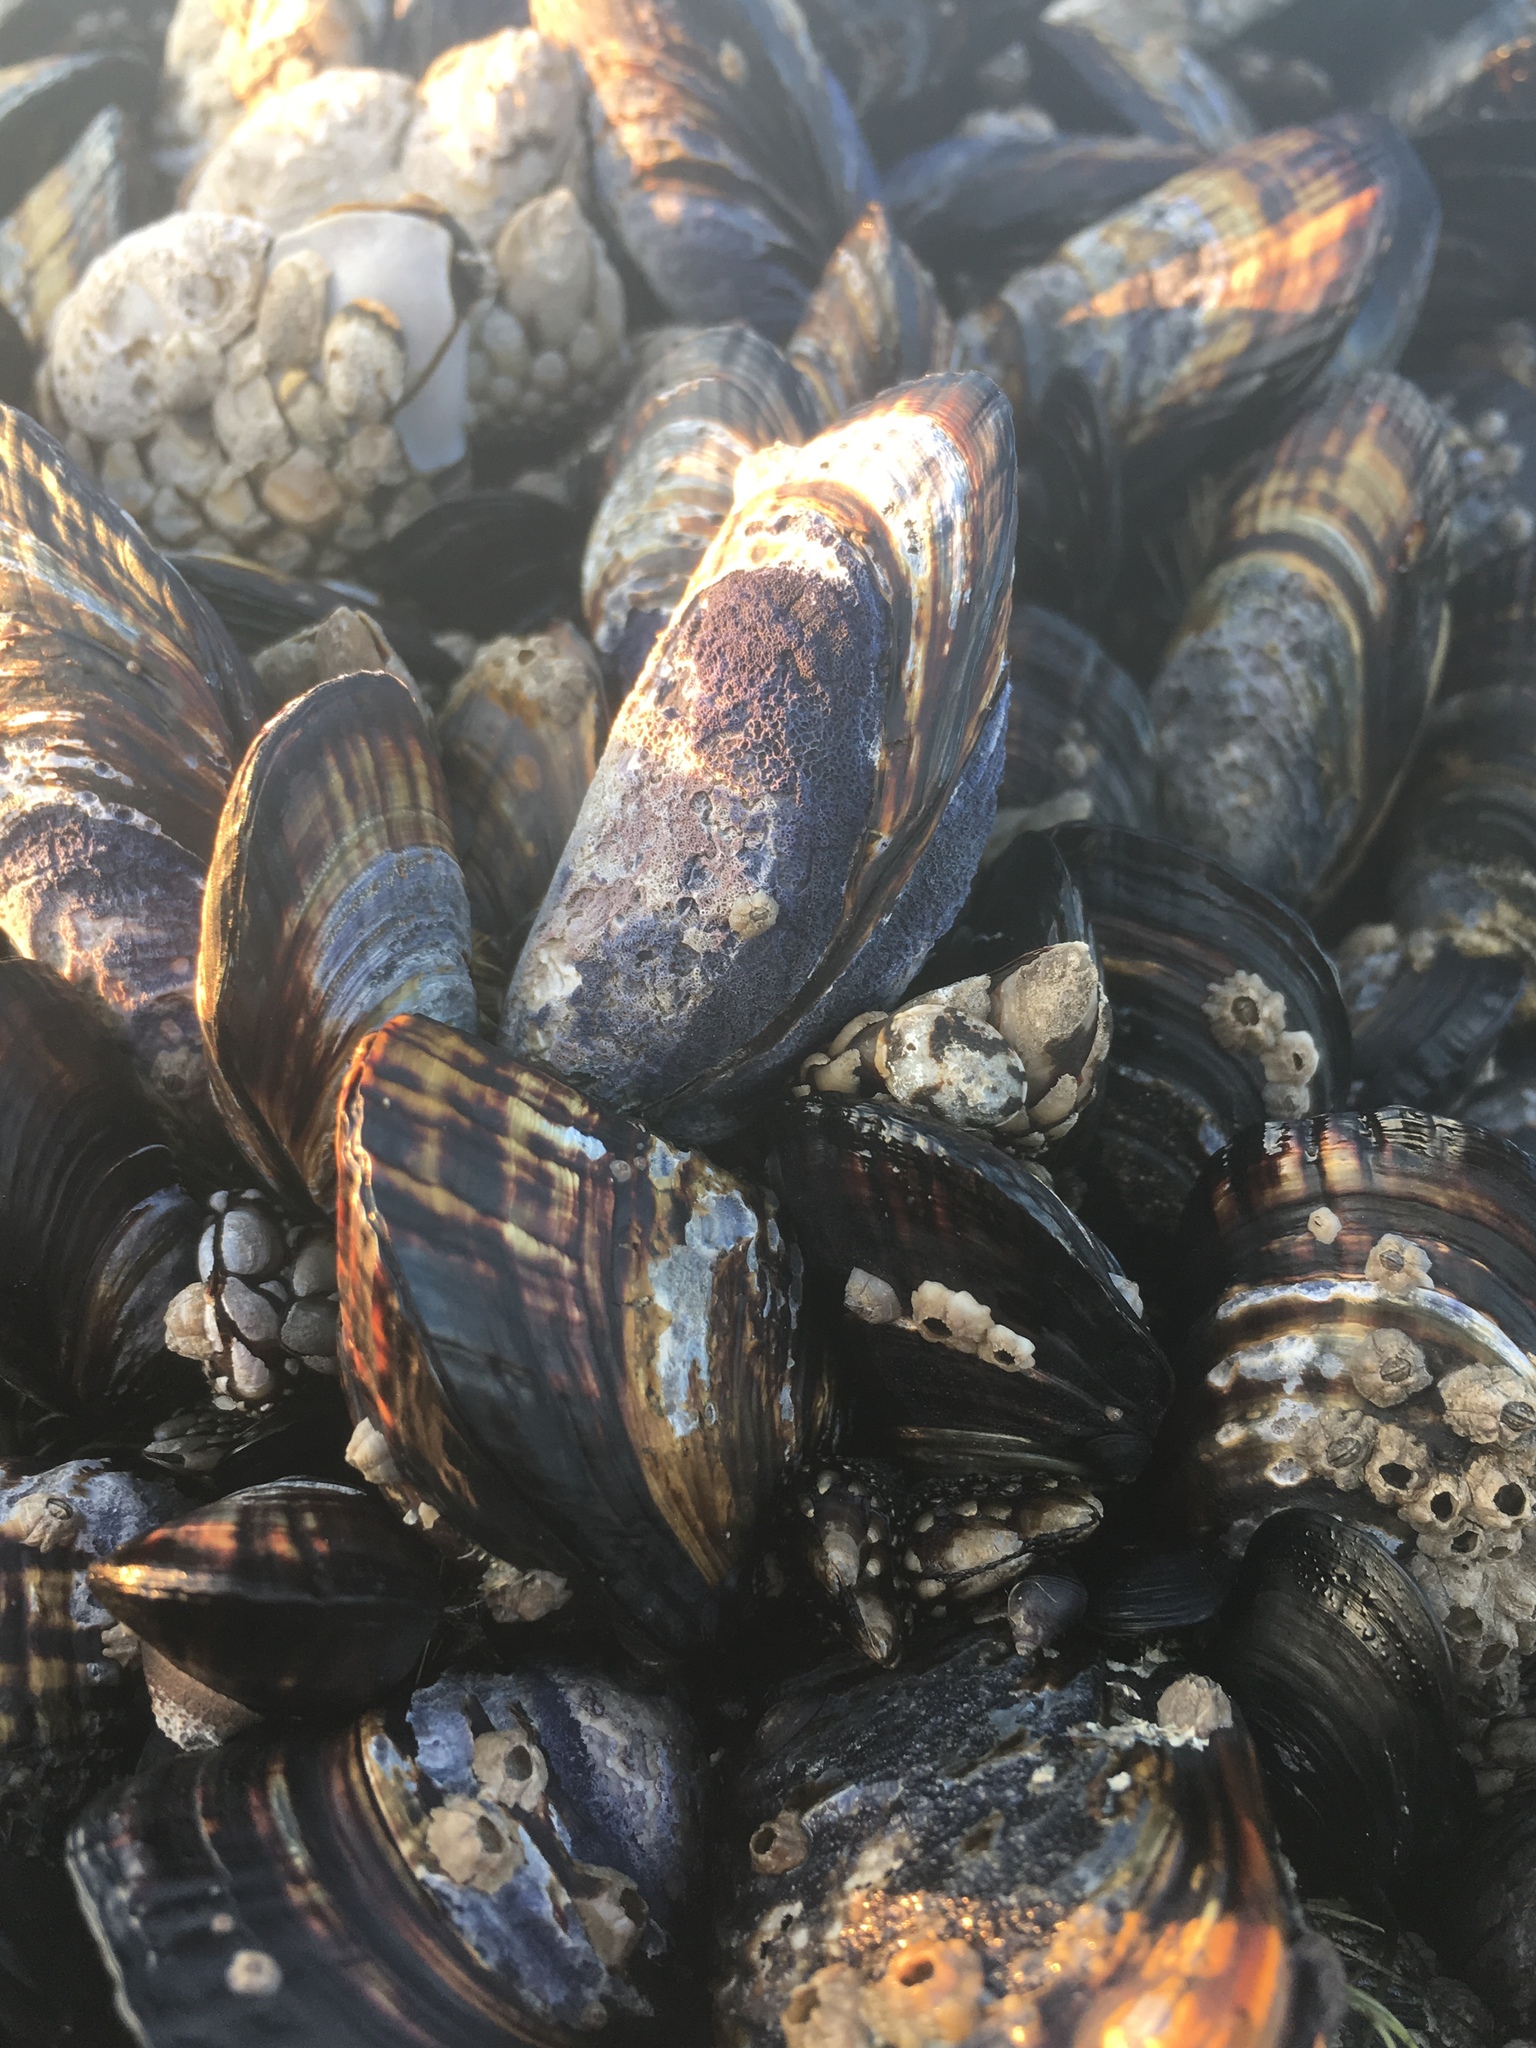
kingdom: Animalia
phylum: Mollusca
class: Bivalvia
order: Mytilida
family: Mytilidae
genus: Mytilus
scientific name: Mytilus californianus
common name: California mussel
